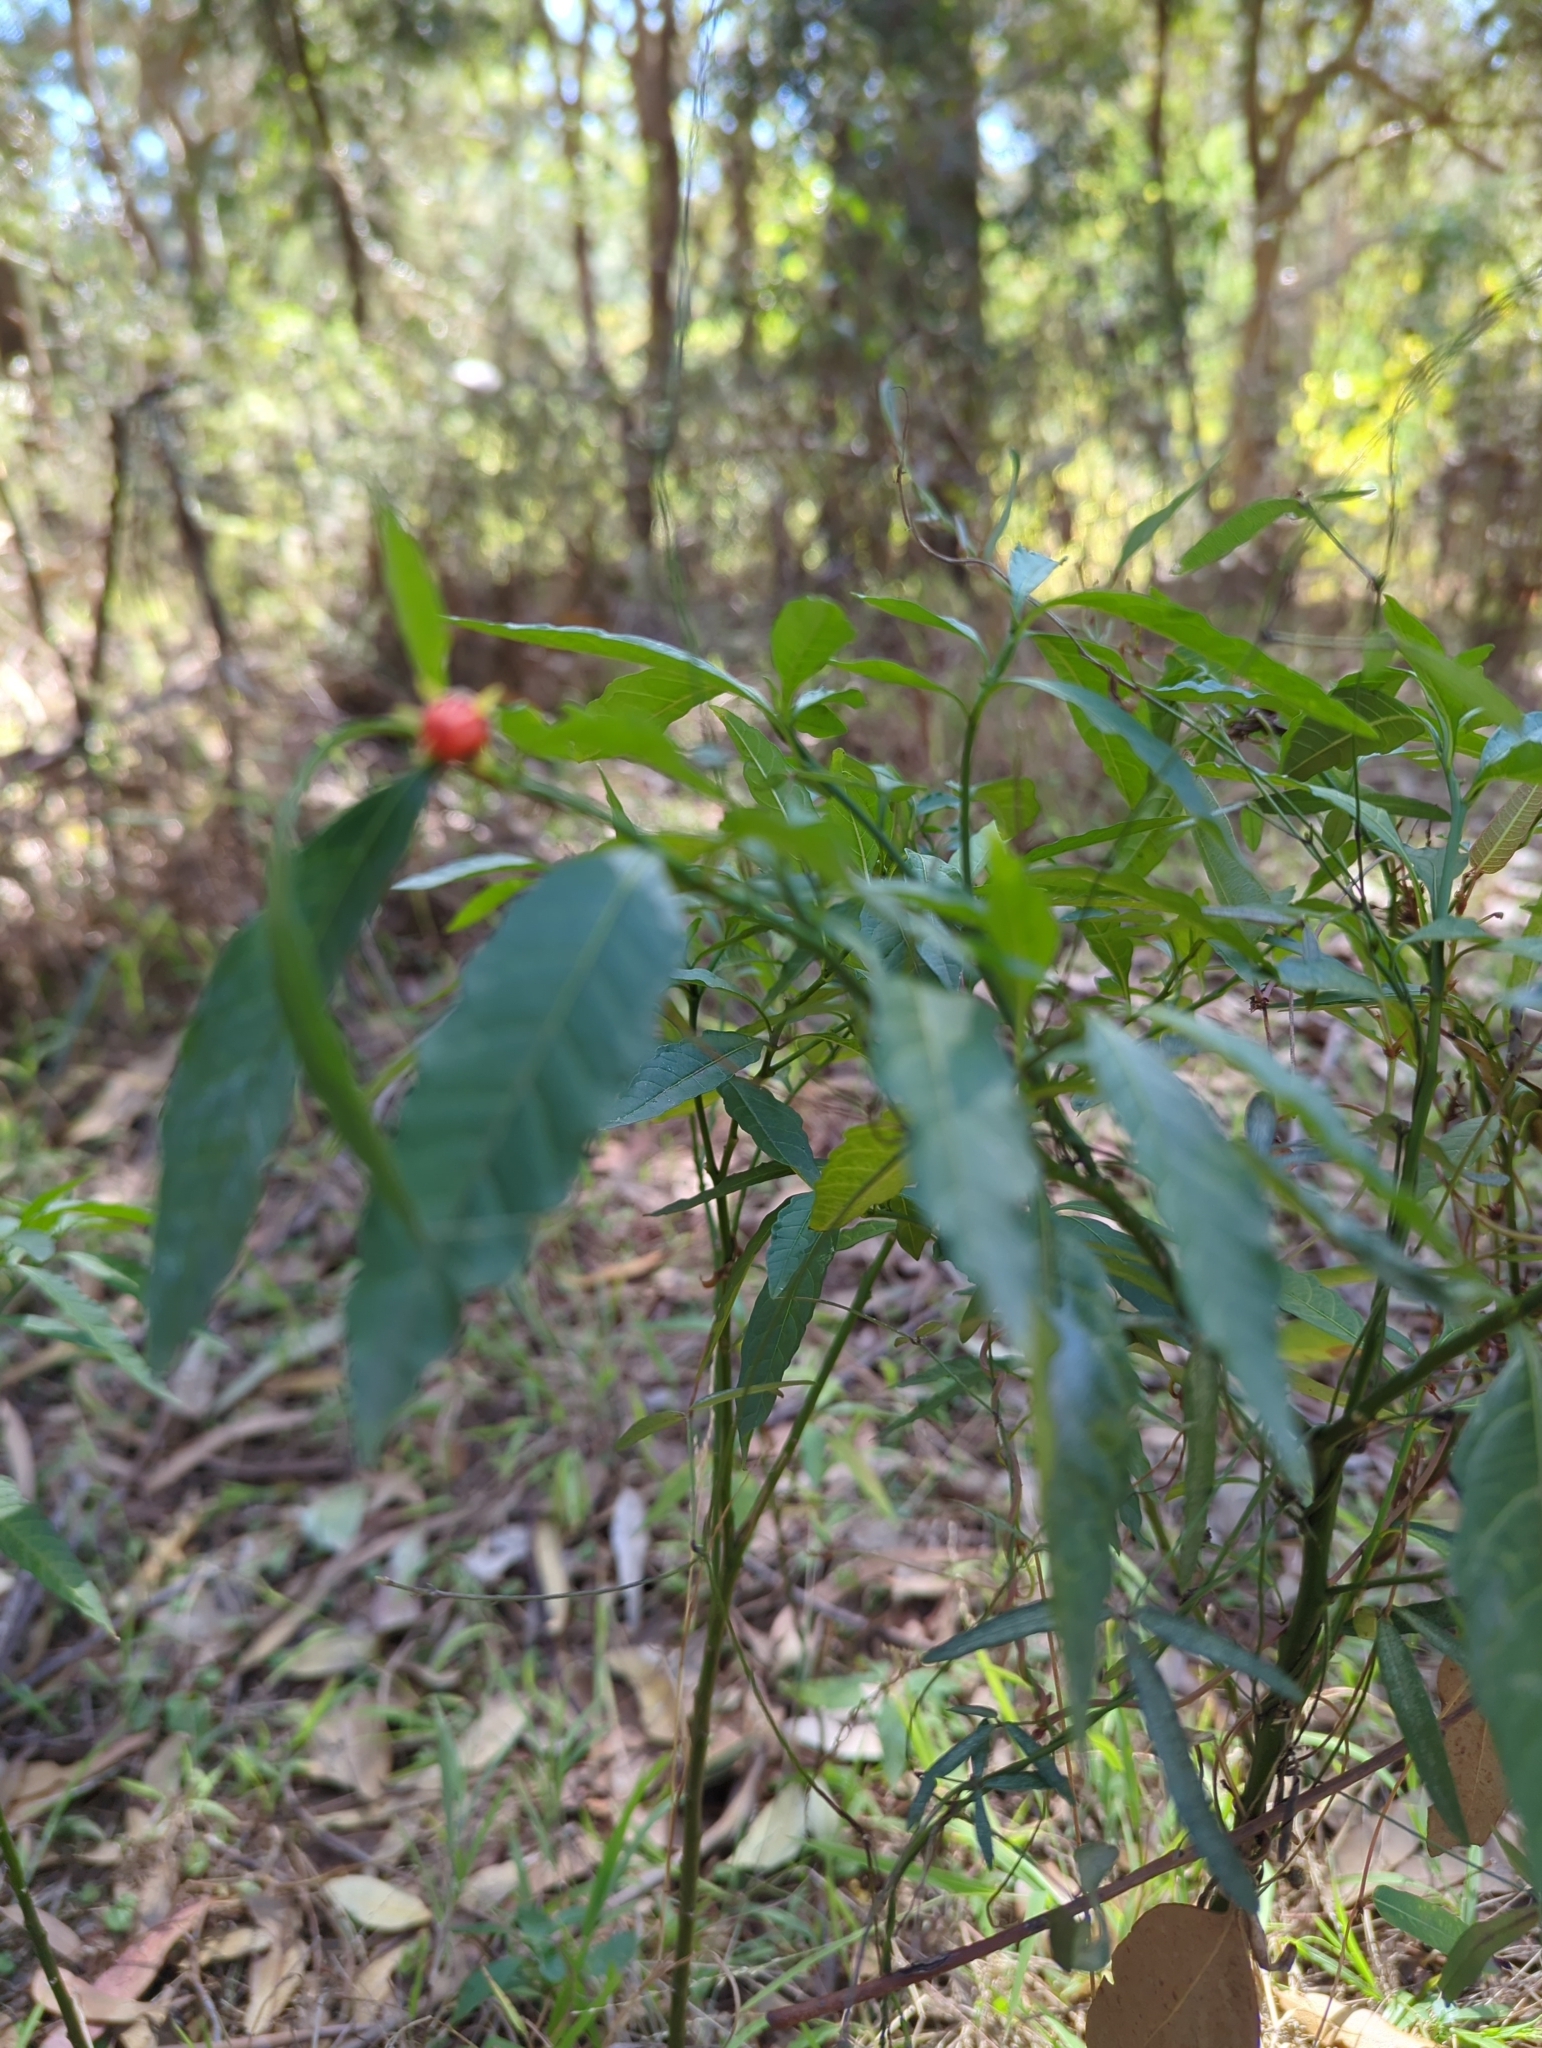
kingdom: Plantae
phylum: Tracheophyta
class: Magnoliopsida
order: Solanales
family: Solanaceae
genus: Solanum
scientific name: Solanum pseudocapsicum
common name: Jerusalem cherry
